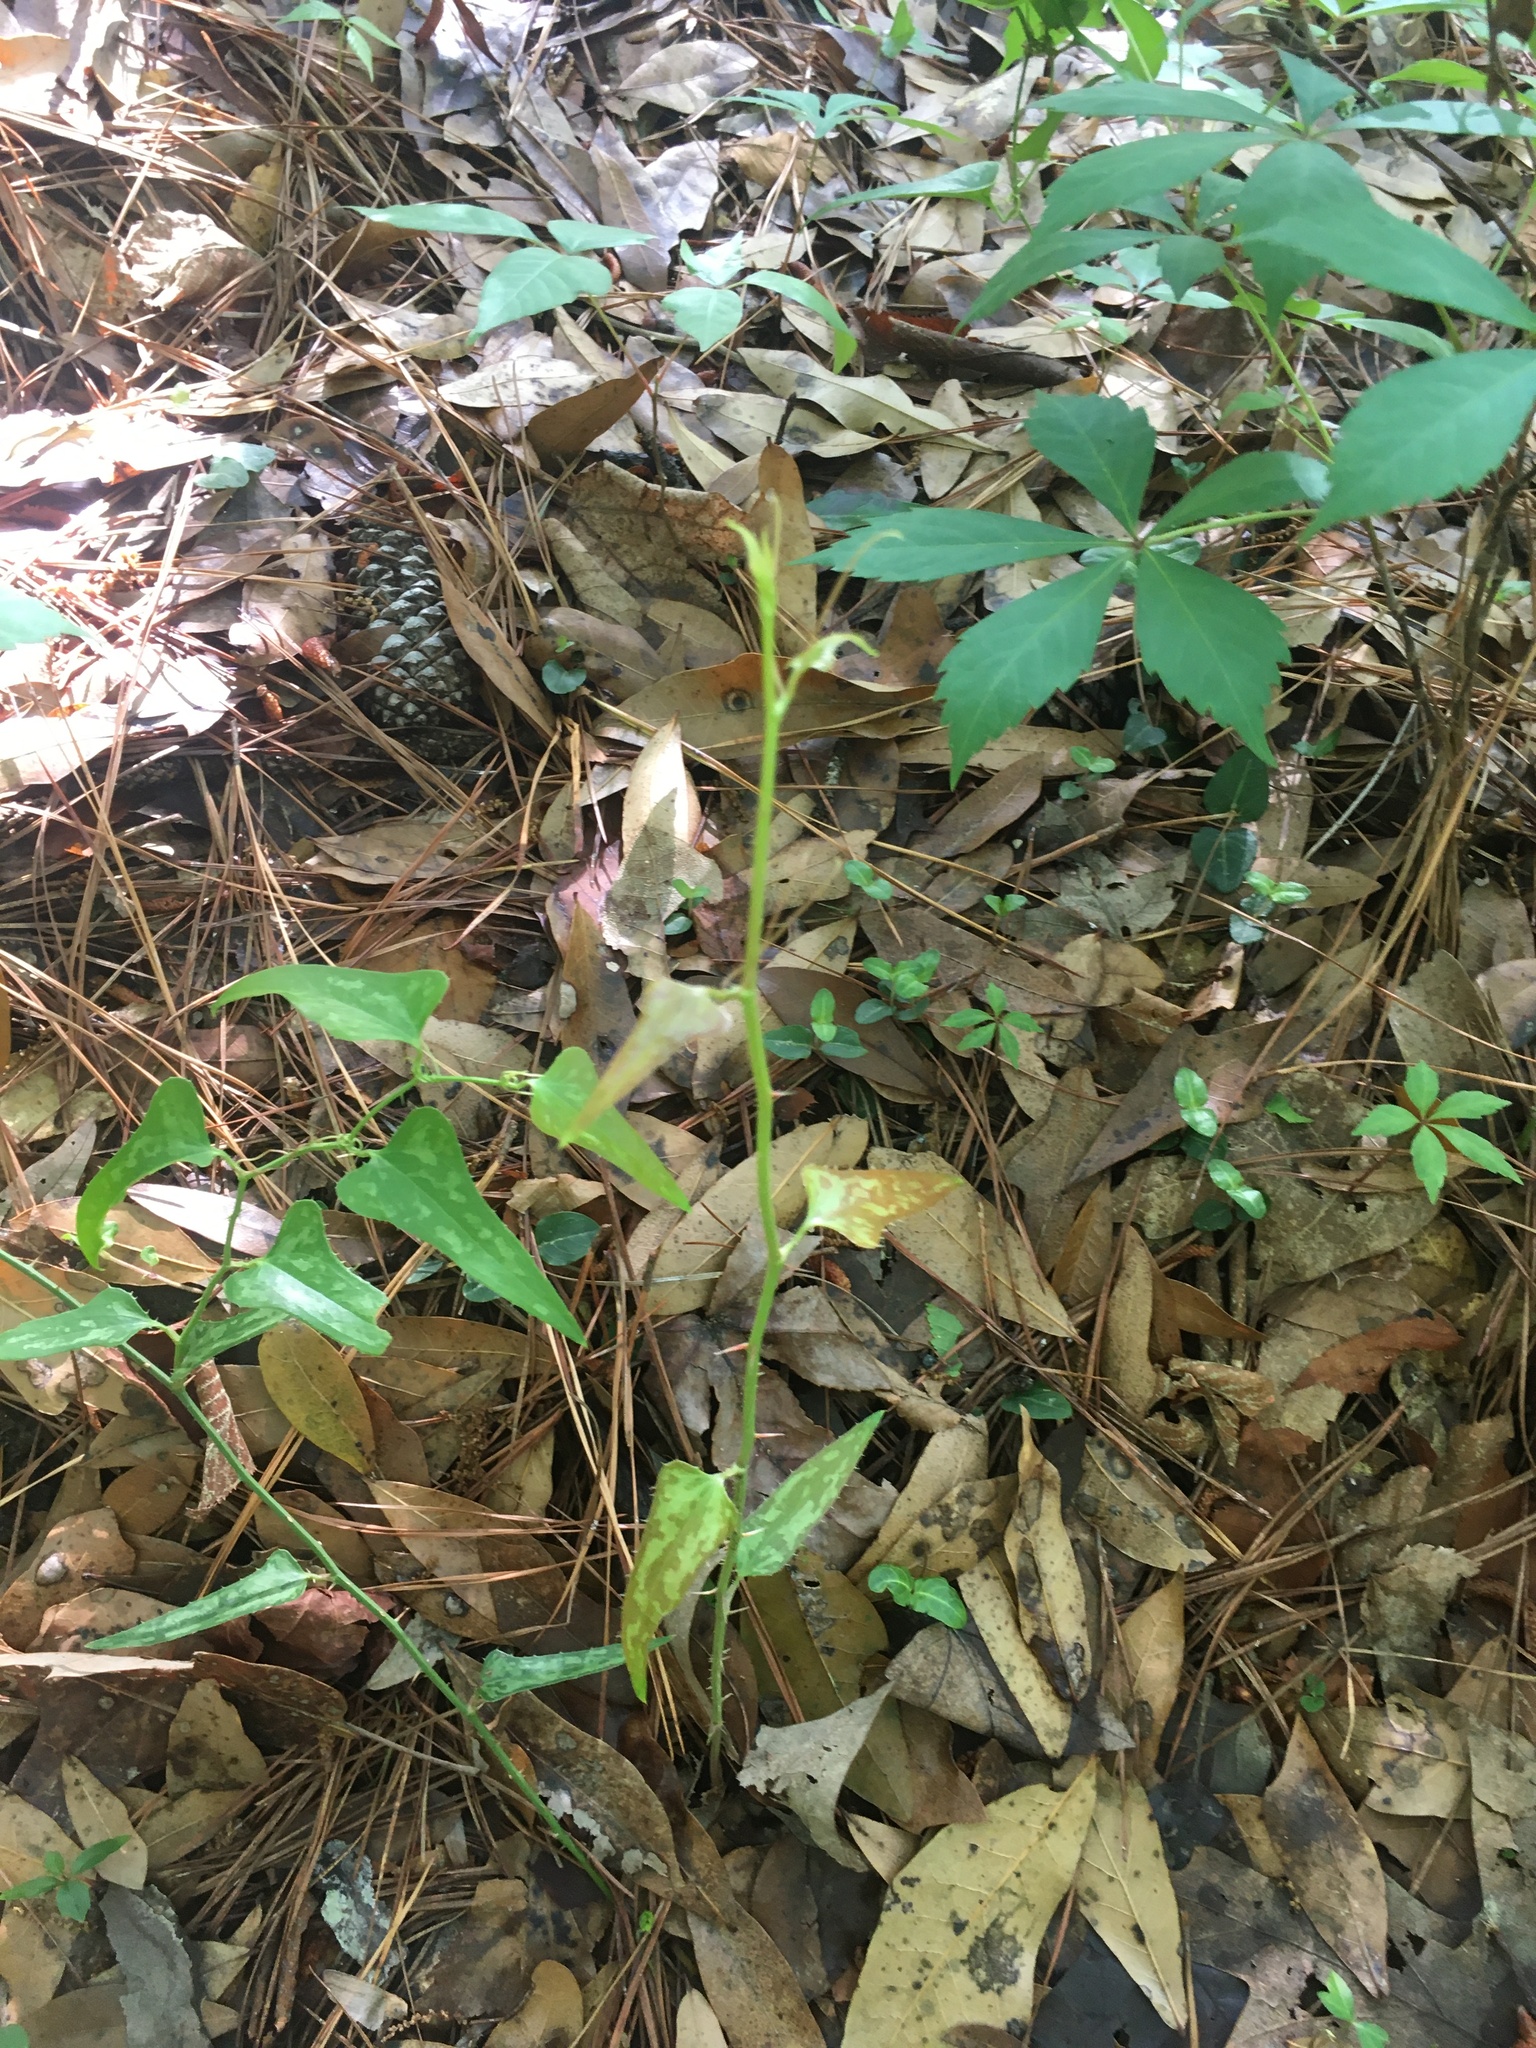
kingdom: Plantae
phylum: Tracheophyta
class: Liliopsida
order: Liliales
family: Smilacaceae
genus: Smilax
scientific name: Smilax bona-nox
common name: Catbrier
